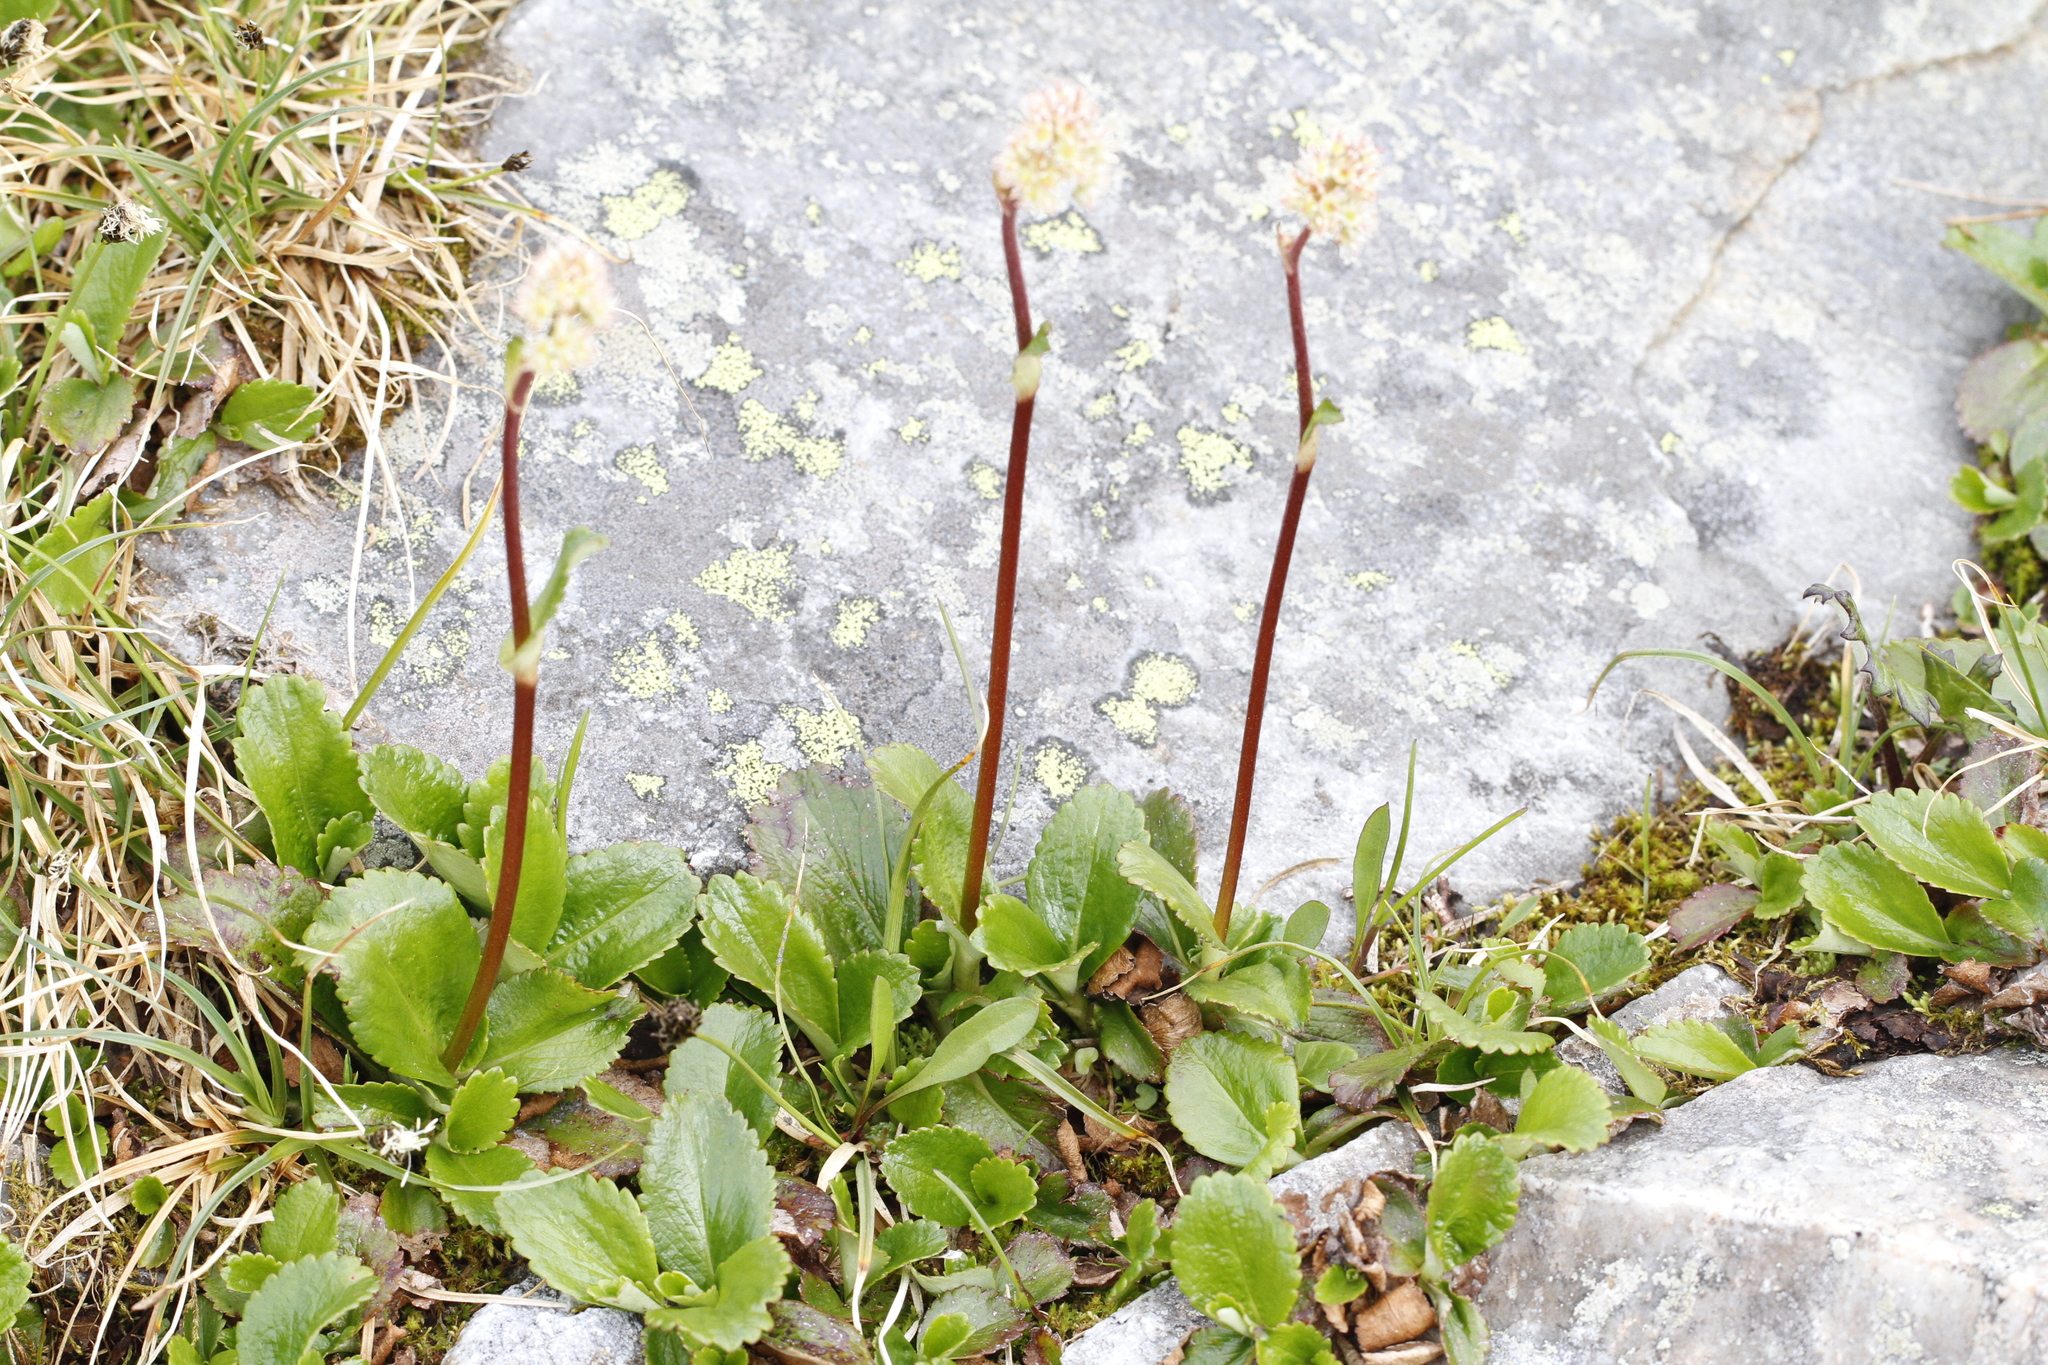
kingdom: Plantae
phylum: Tracheophyta
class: Magnoliopsida
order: Saxifragales
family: Saxifragaceae
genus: Leptarrhena
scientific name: Leptarrhena pyrolifolia
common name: Leatherleaf-saxifrage
